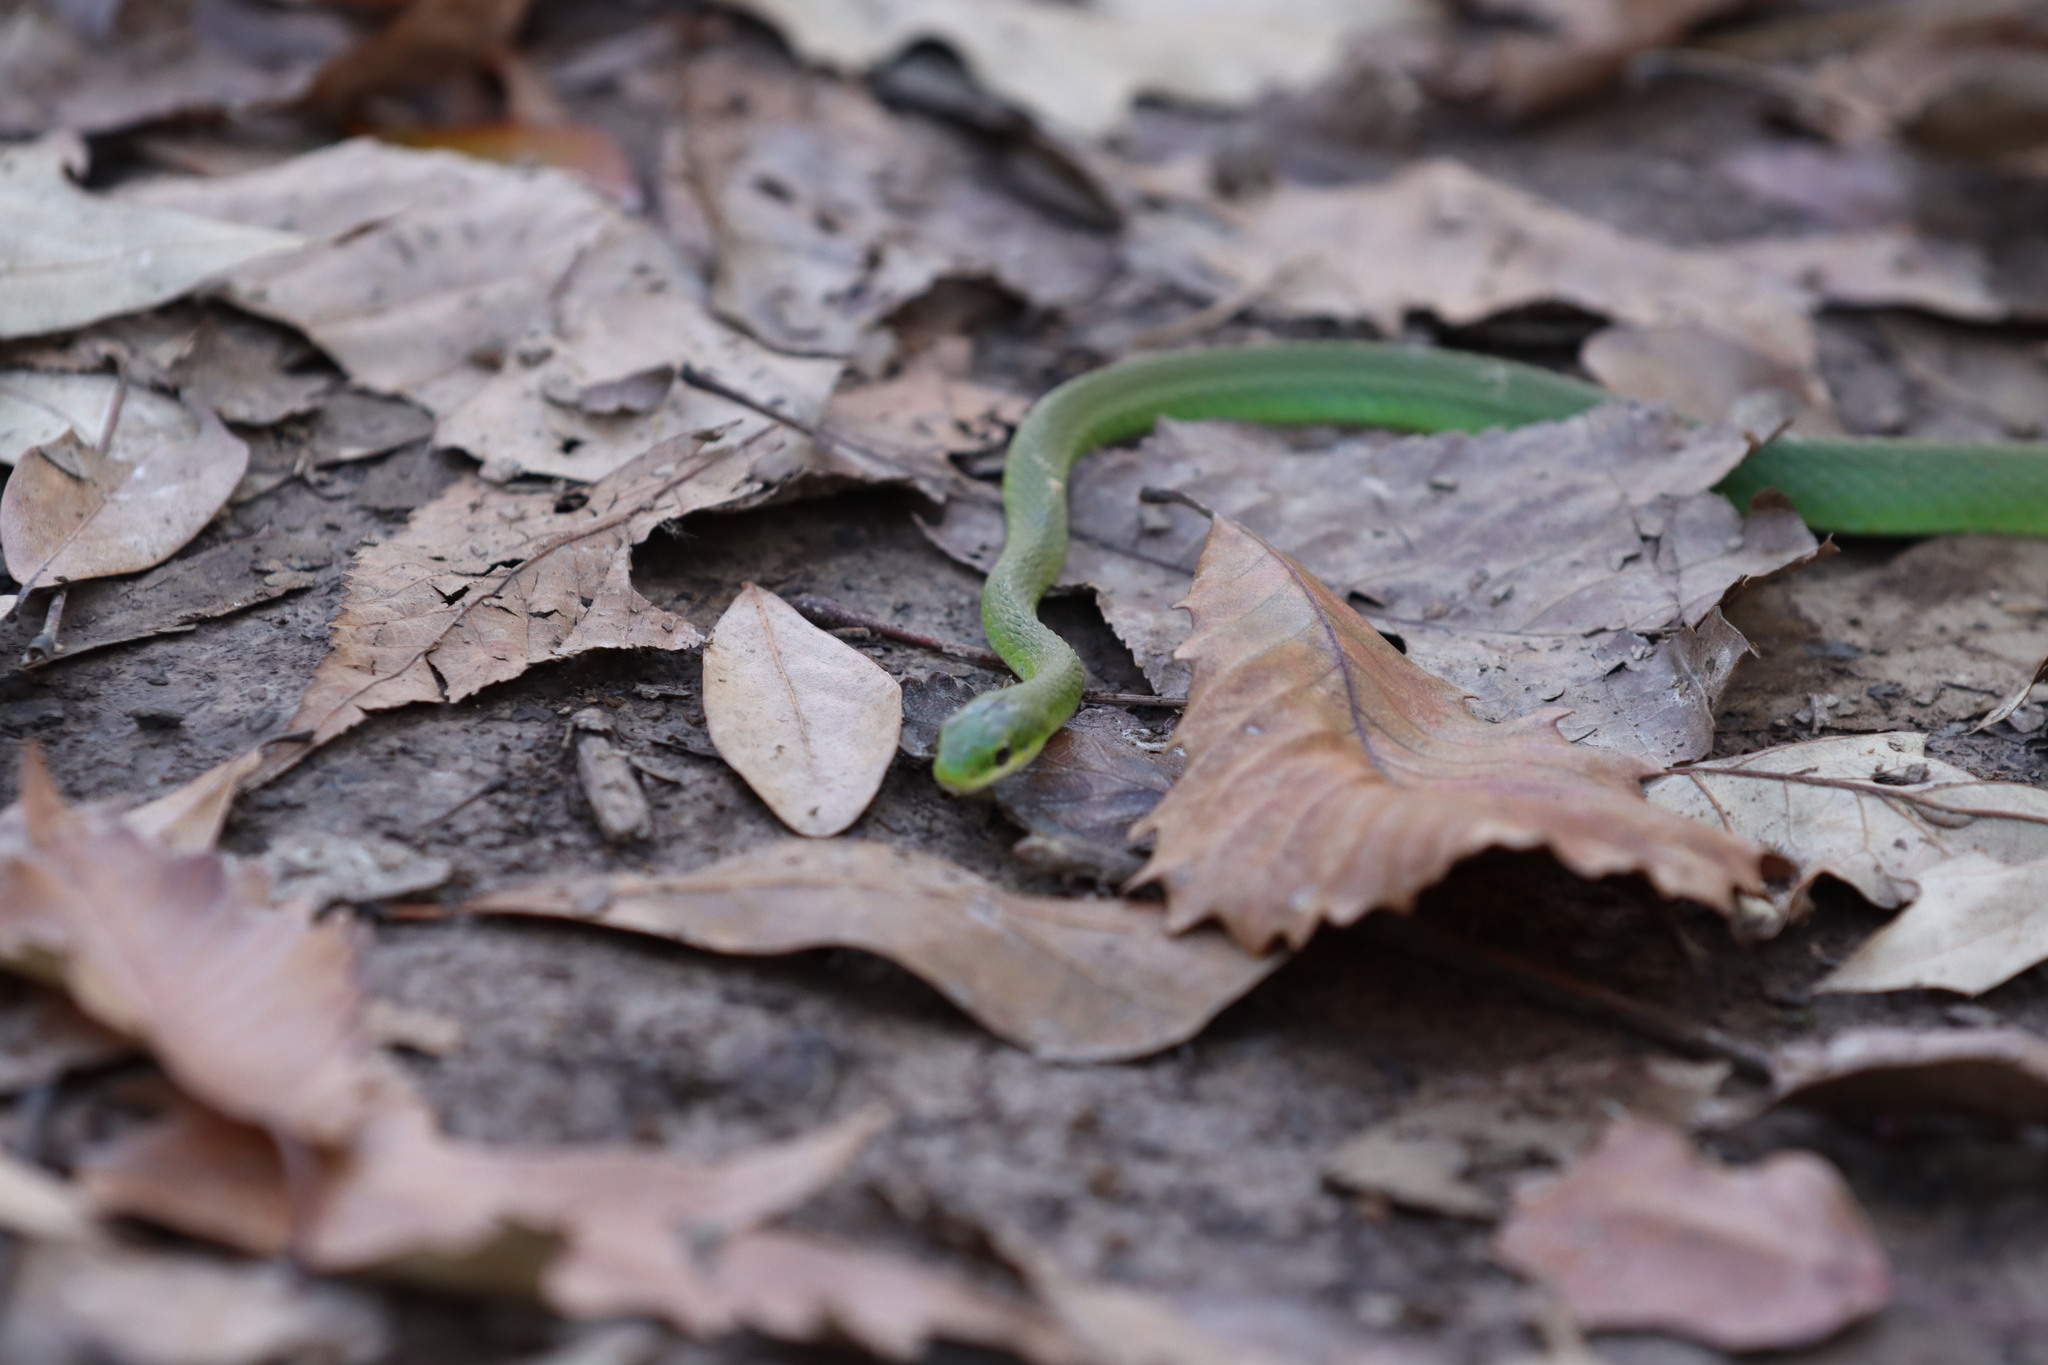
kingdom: Animalia
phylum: Chordata
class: Squamata
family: Colubridae
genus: Opheodrys
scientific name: Opheodrys aestivus
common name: Rough greensnake
